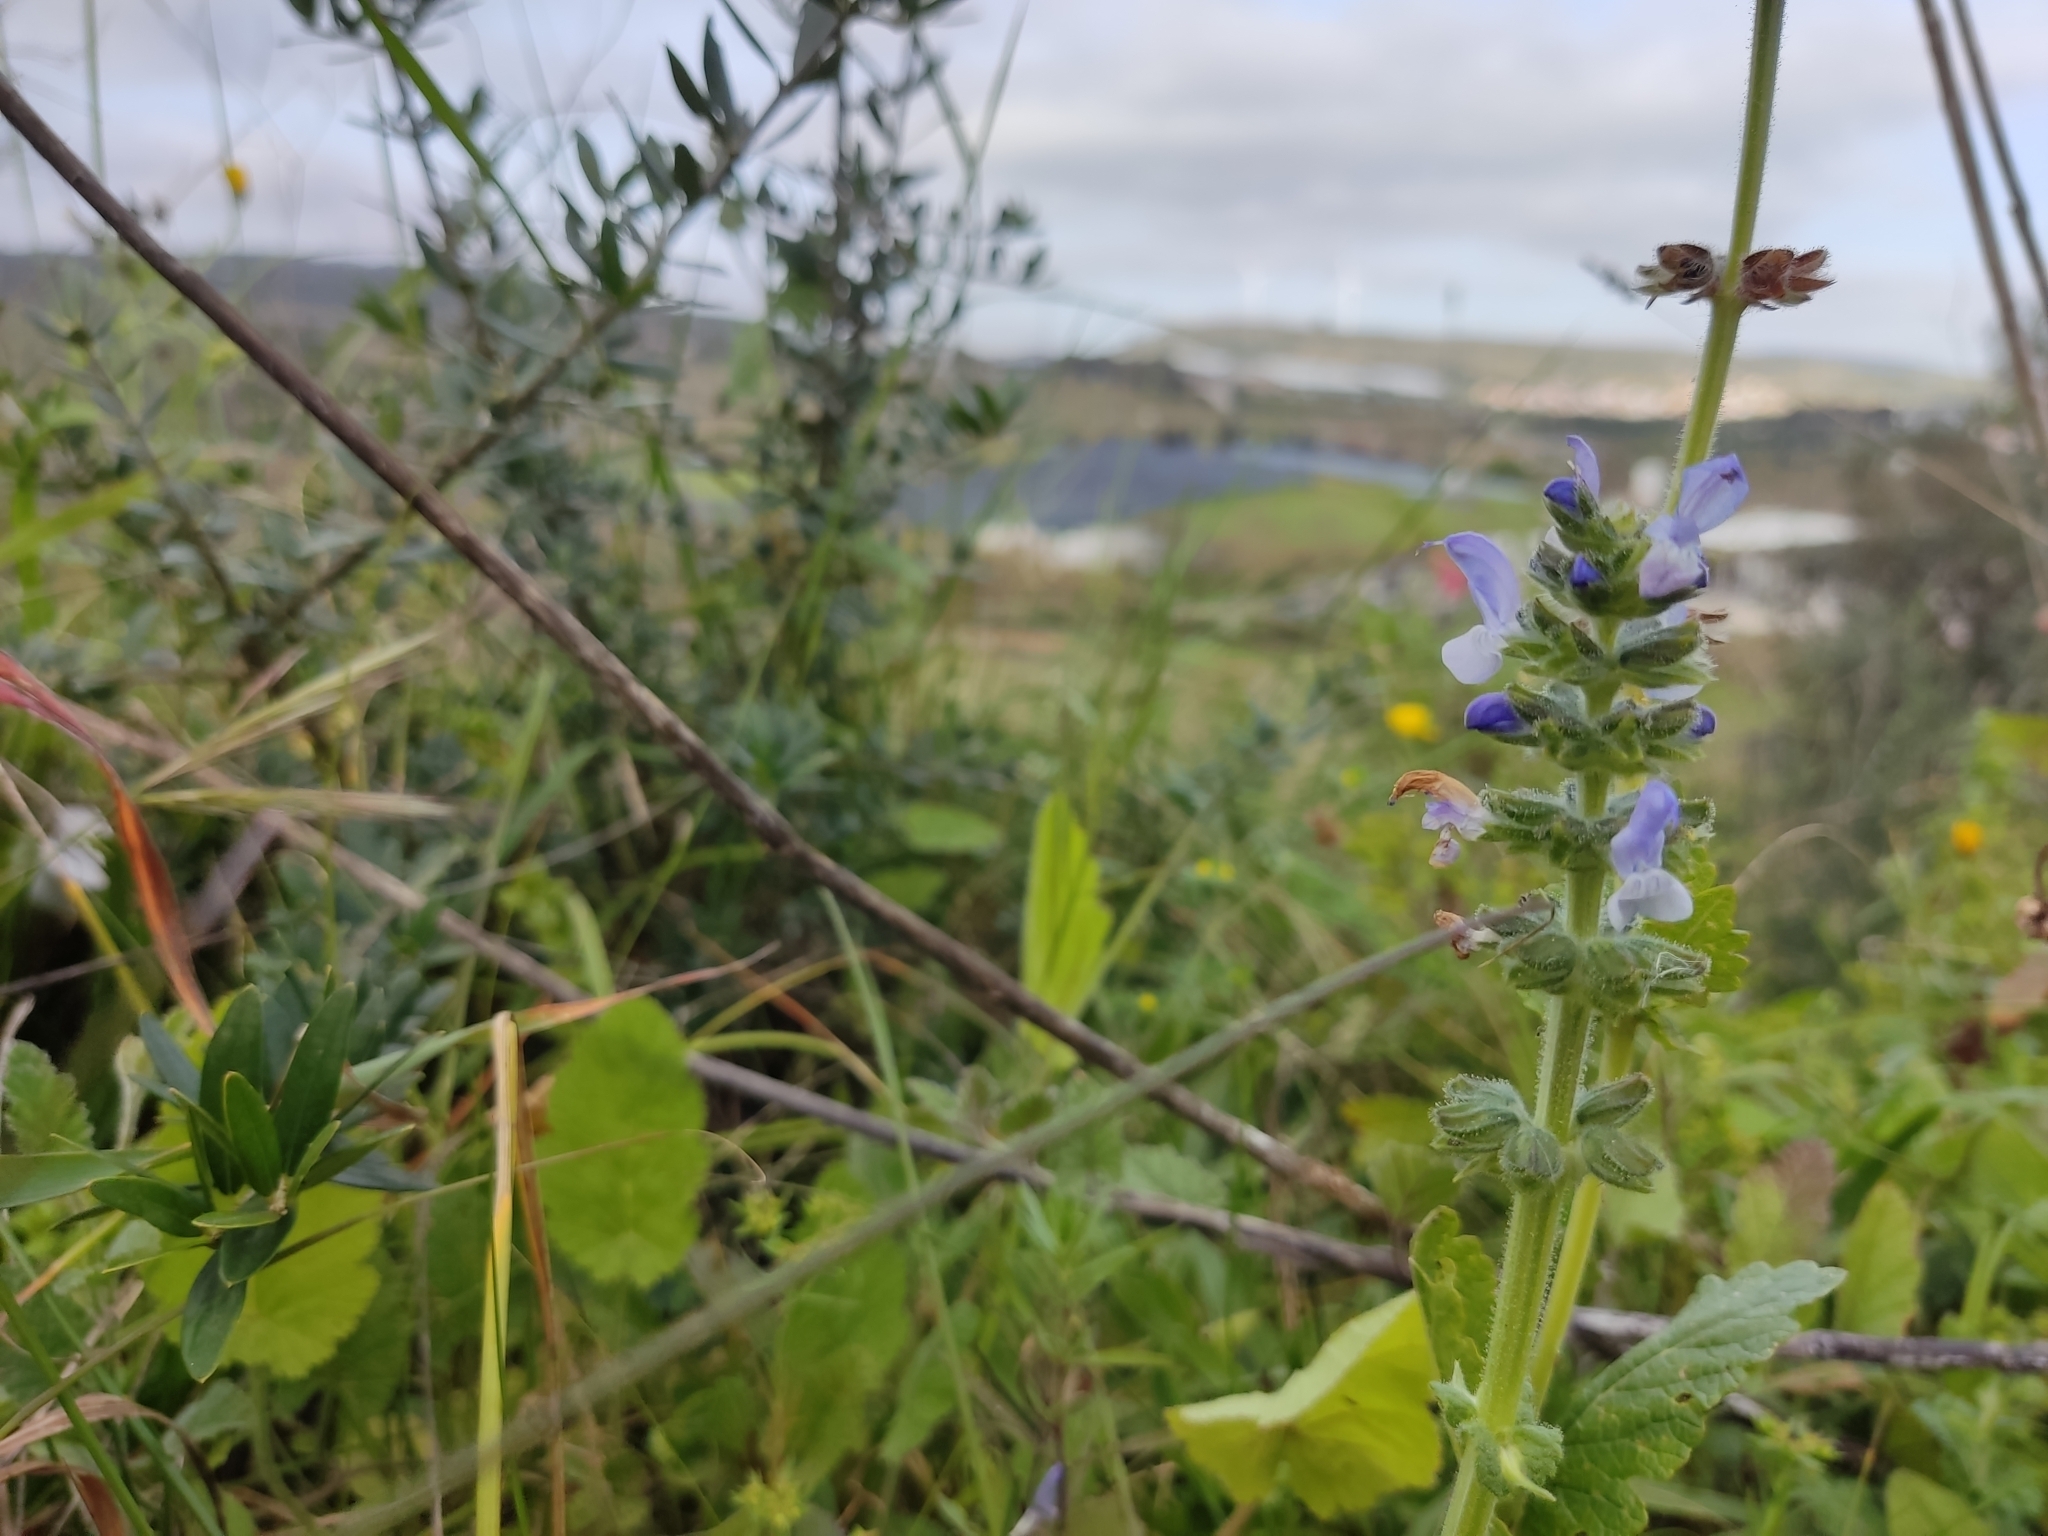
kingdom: Plantae
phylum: Tracheophyta
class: Magnoliopsida
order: Lamiales
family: Lamiaceae
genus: Salvia
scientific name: Salvia verbenaca
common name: Wild clary
